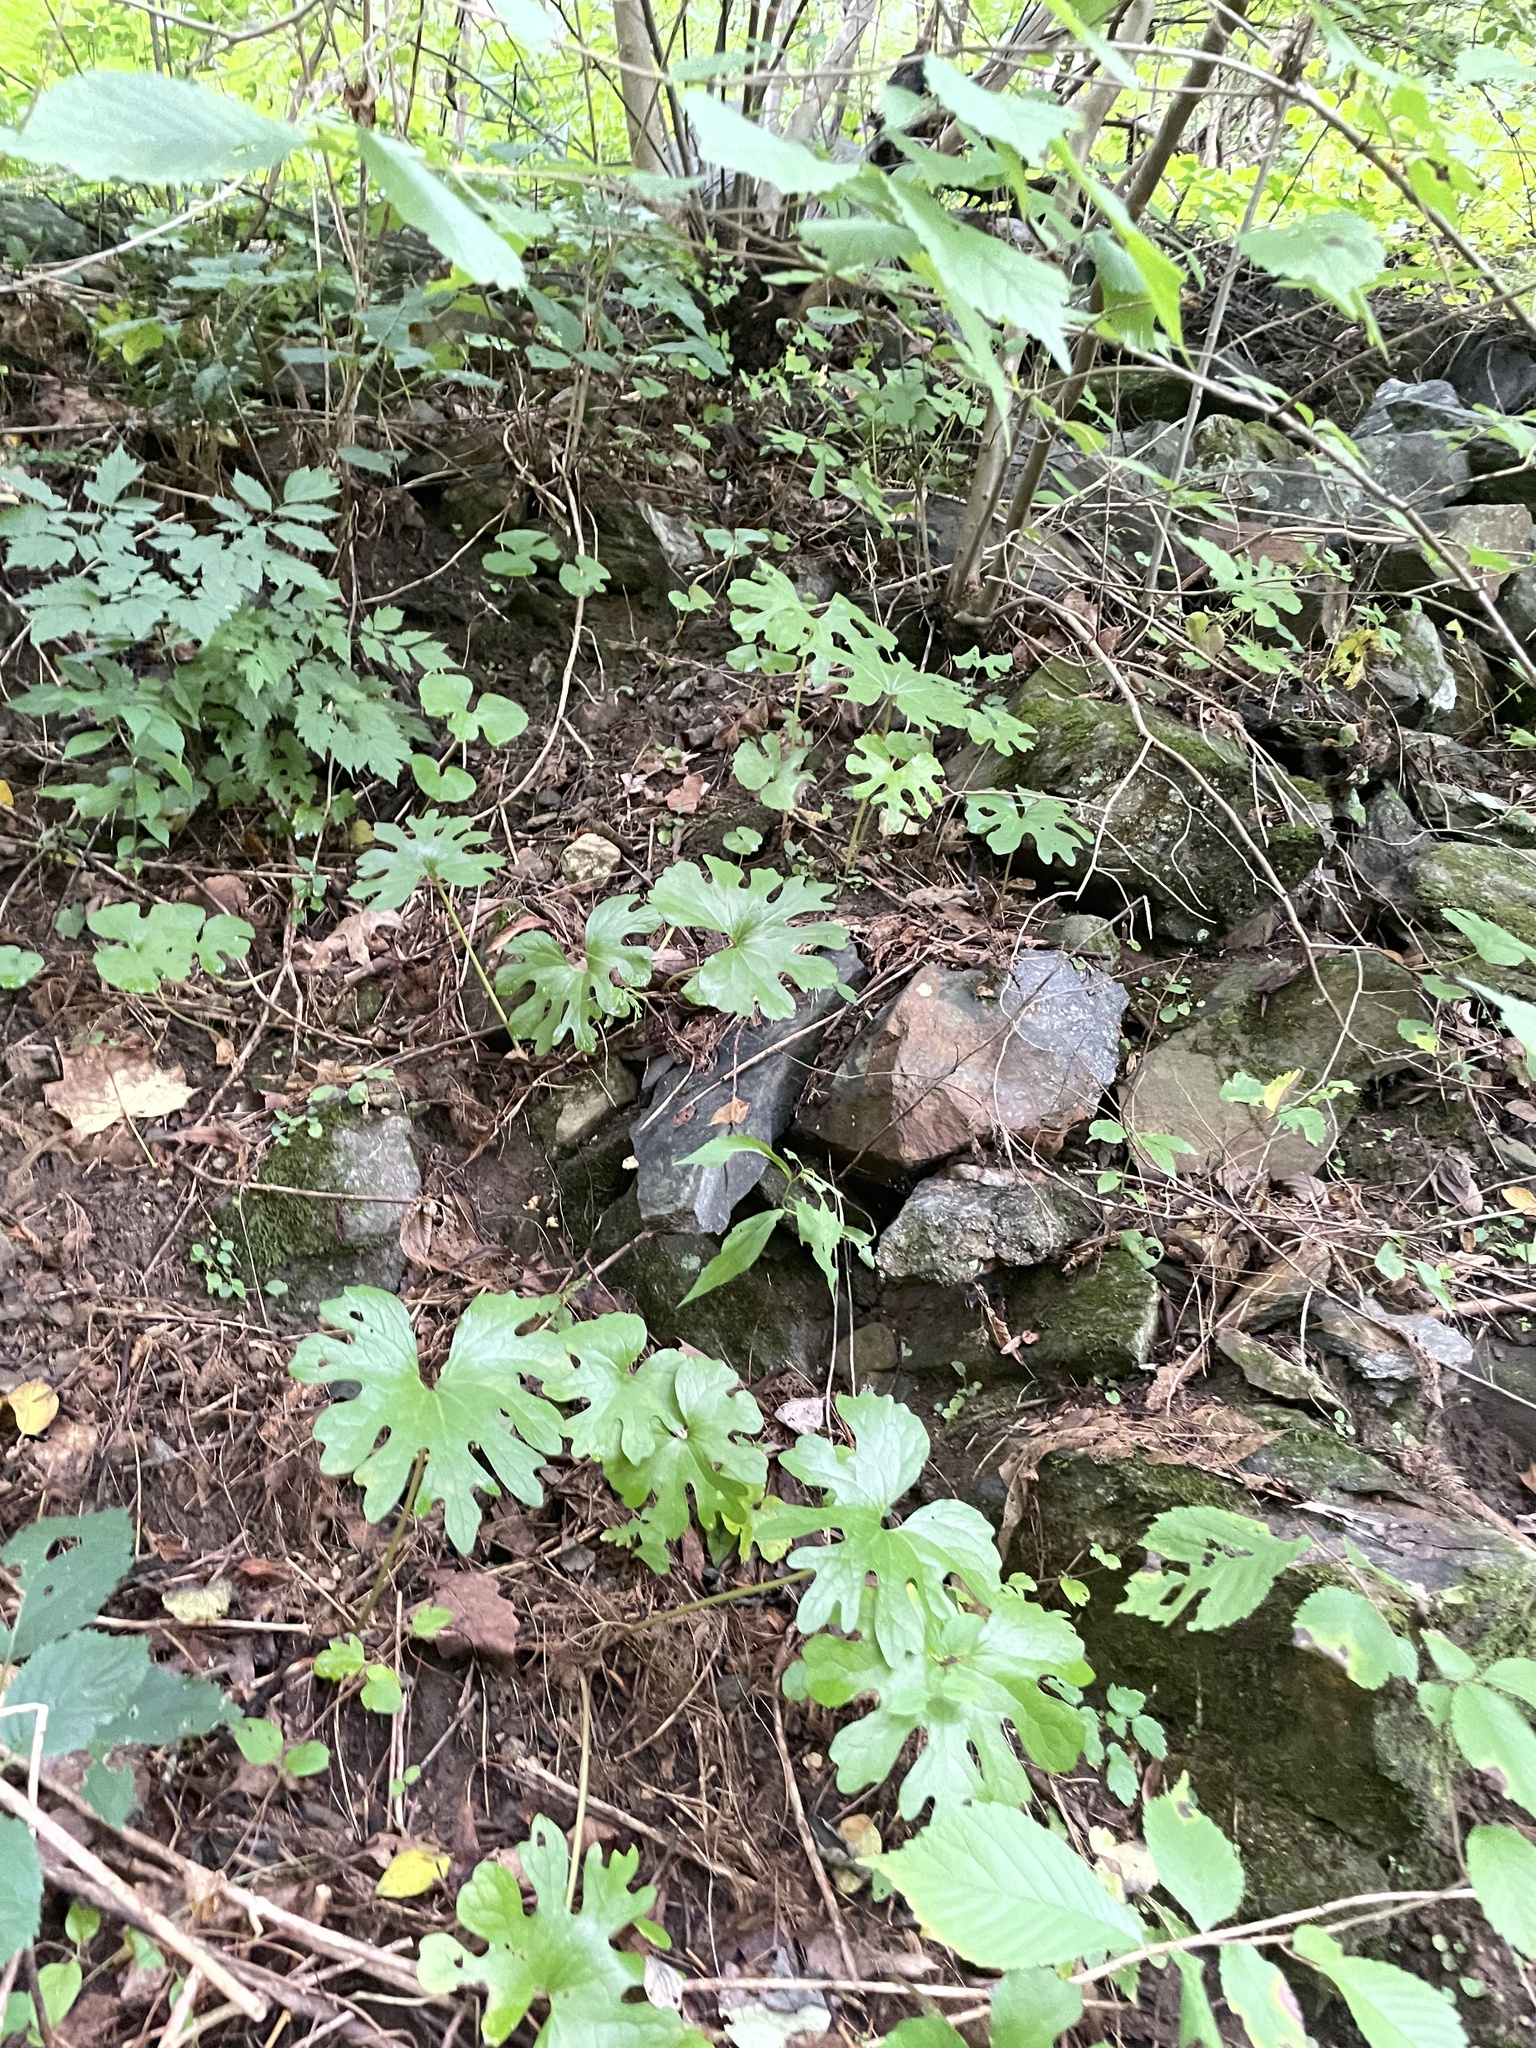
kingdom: Plantae
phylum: Tracheophyta
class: Magnoliopsida
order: Ranunculales
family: Papaveraceae
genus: Sanguinaria
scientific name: Sanguinaria canadensis
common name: Bloodroot
